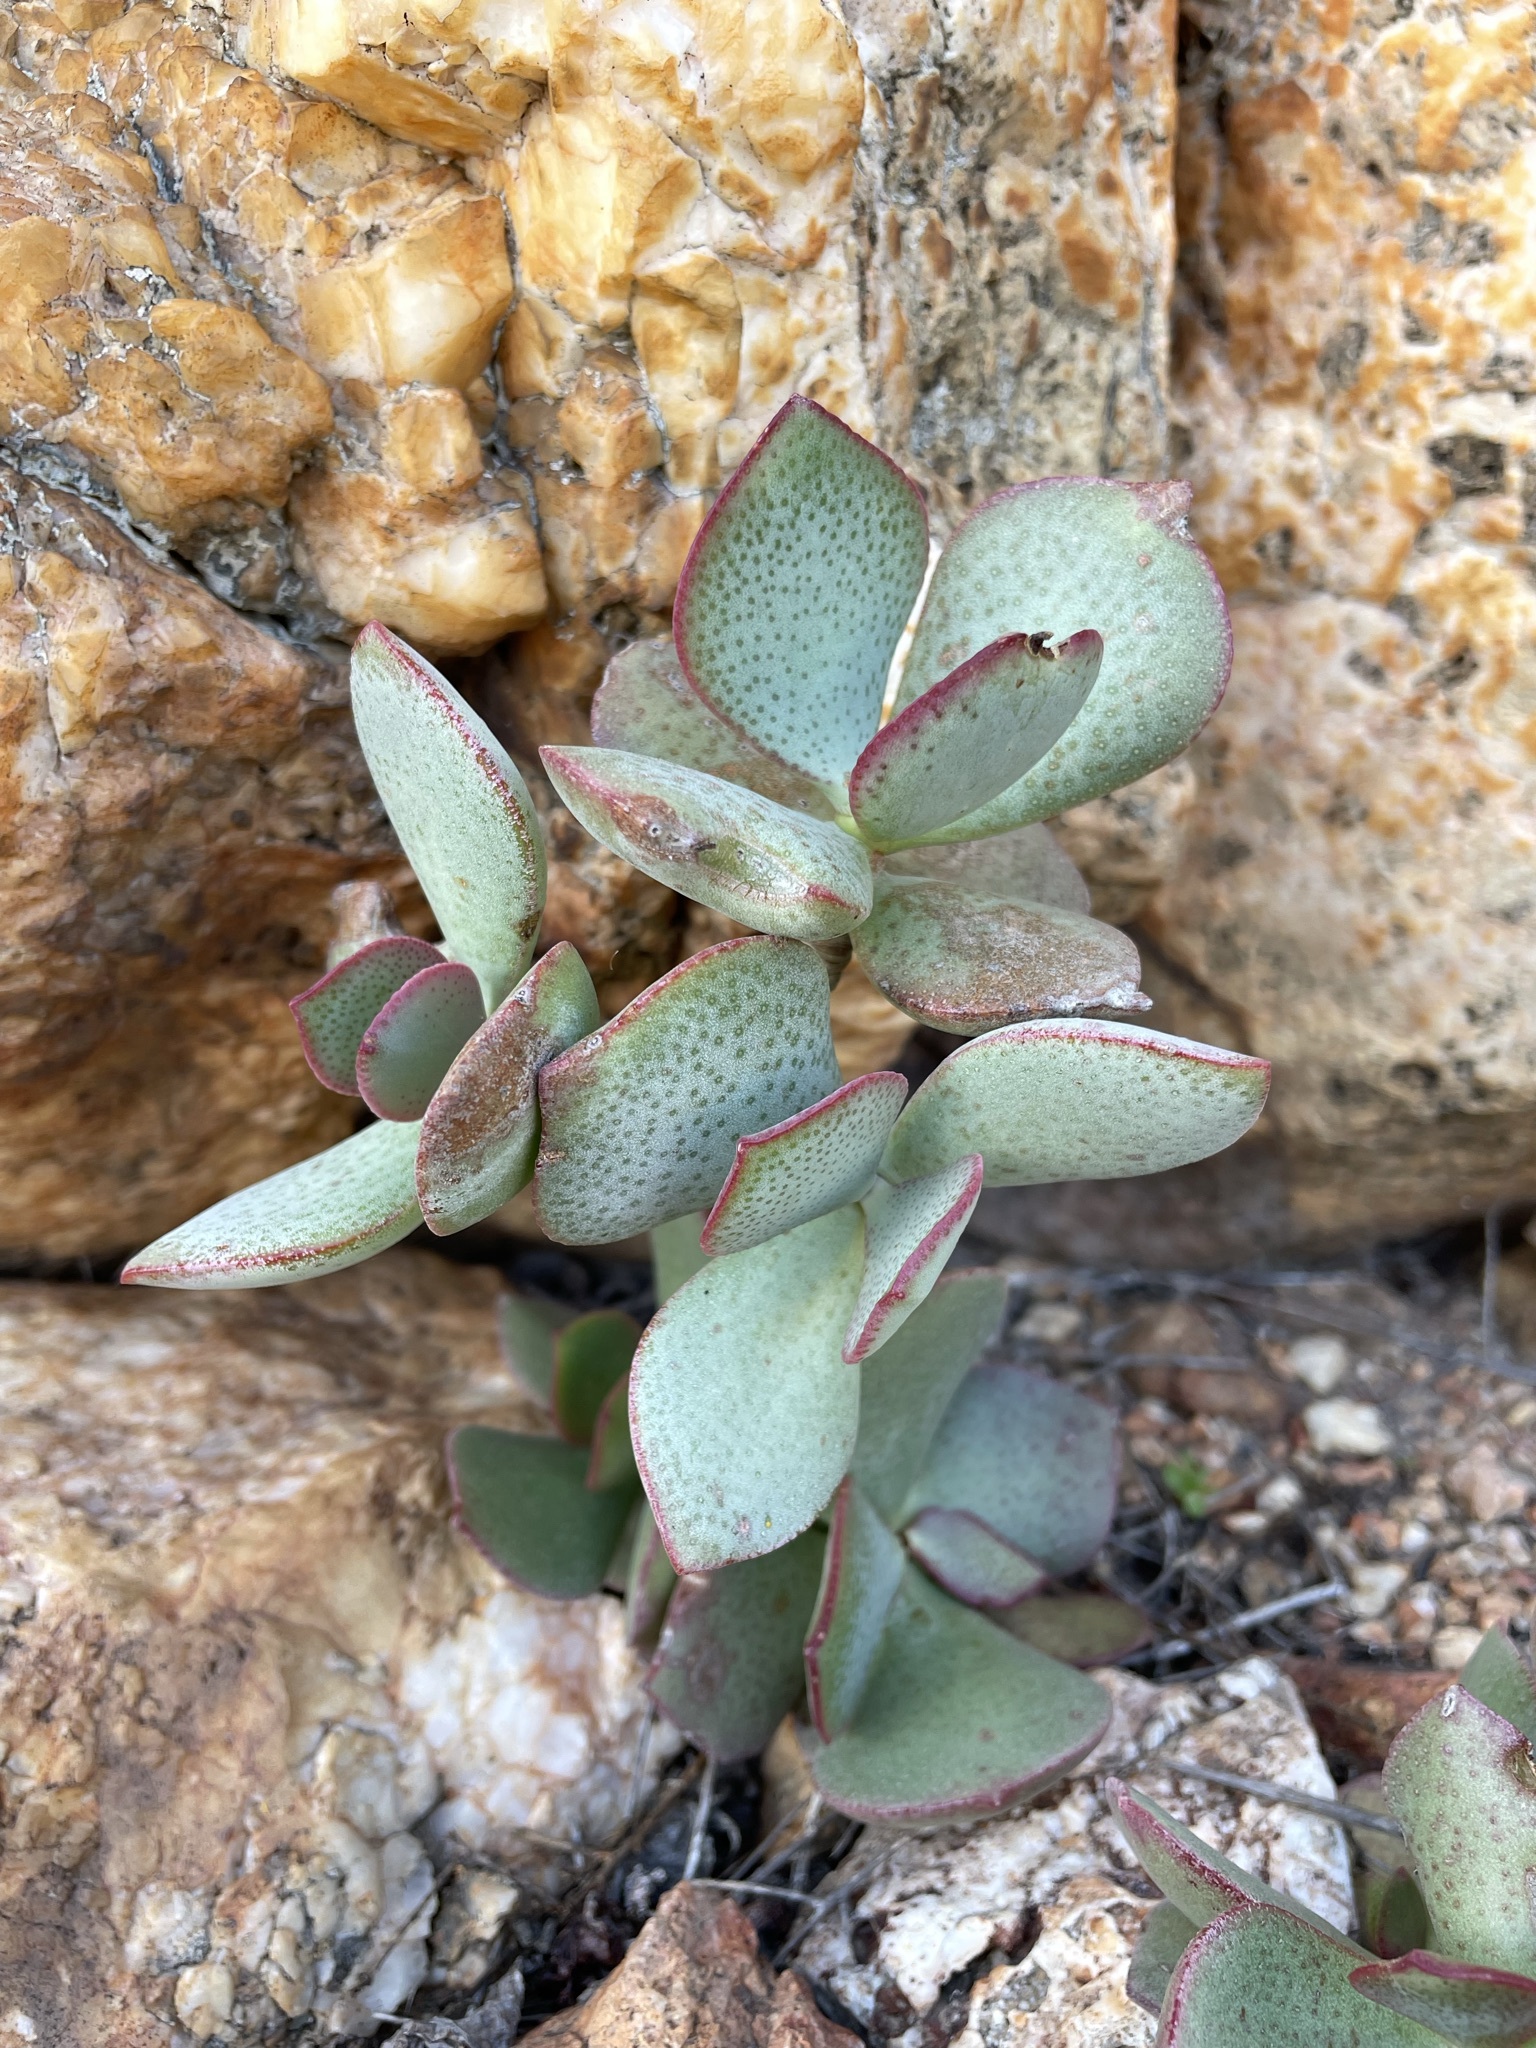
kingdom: Plantae
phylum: Tracheophyta
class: Magnoliopsida
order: Saxifragales
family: Crassulaceae
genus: Crassula
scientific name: Crassula arborescens
